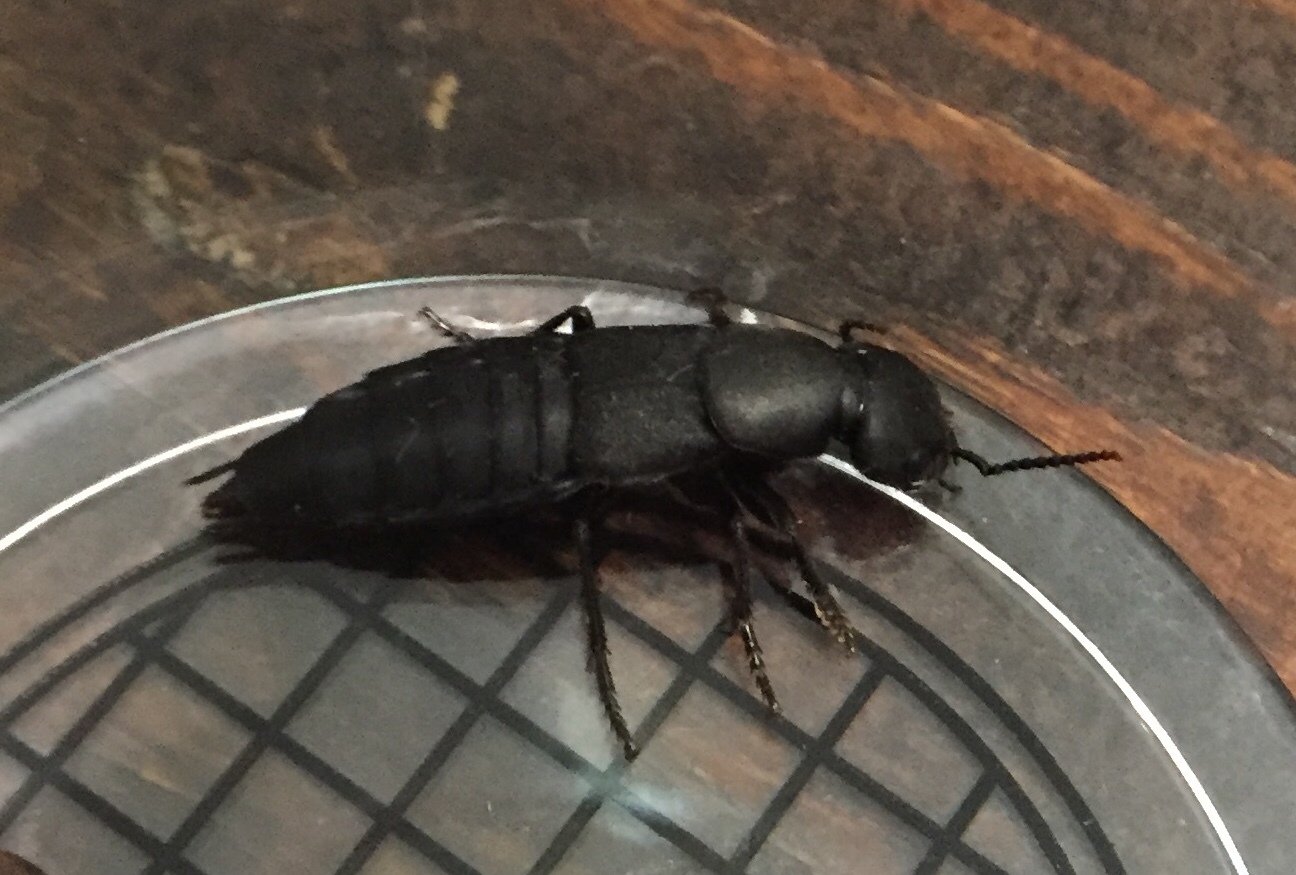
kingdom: Animalia
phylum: Arthropoda
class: Insecta
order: Coleoptera
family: Staphylinidae
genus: Ocypus
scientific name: Ocypus olens
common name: Devil's coach-horse
